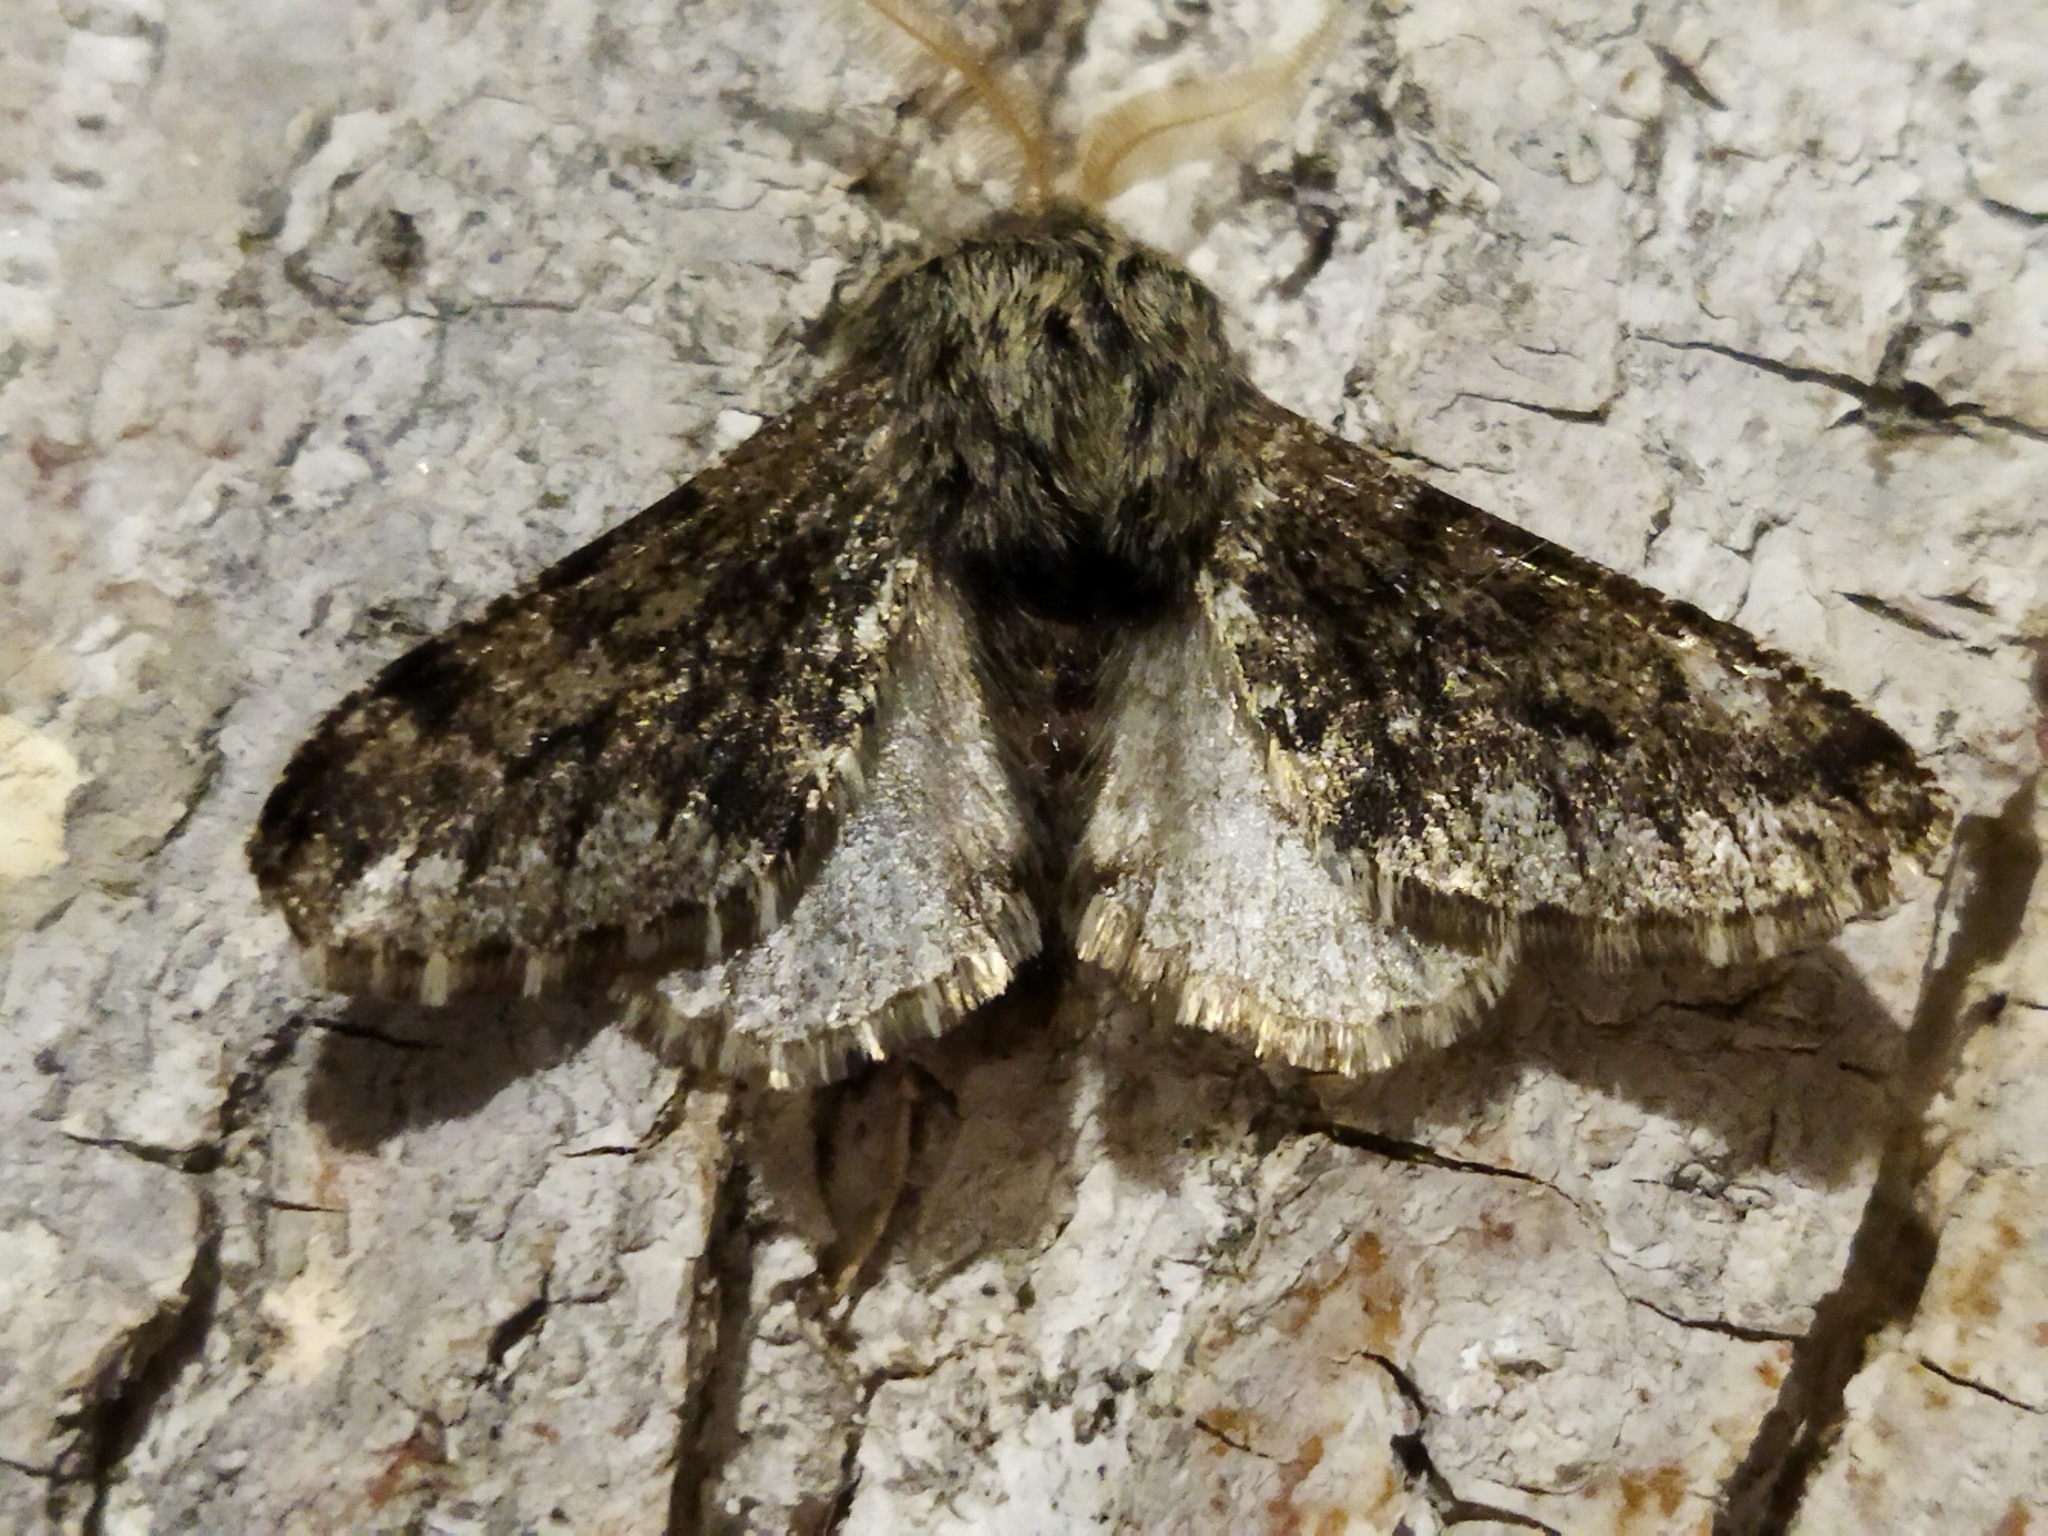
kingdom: Animalia
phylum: Arthropoda
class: Insecta
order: Lepidoptera
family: Geometridae
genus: Apocheima
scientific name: Apocheima hispidaria
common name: Small brindled beauty
